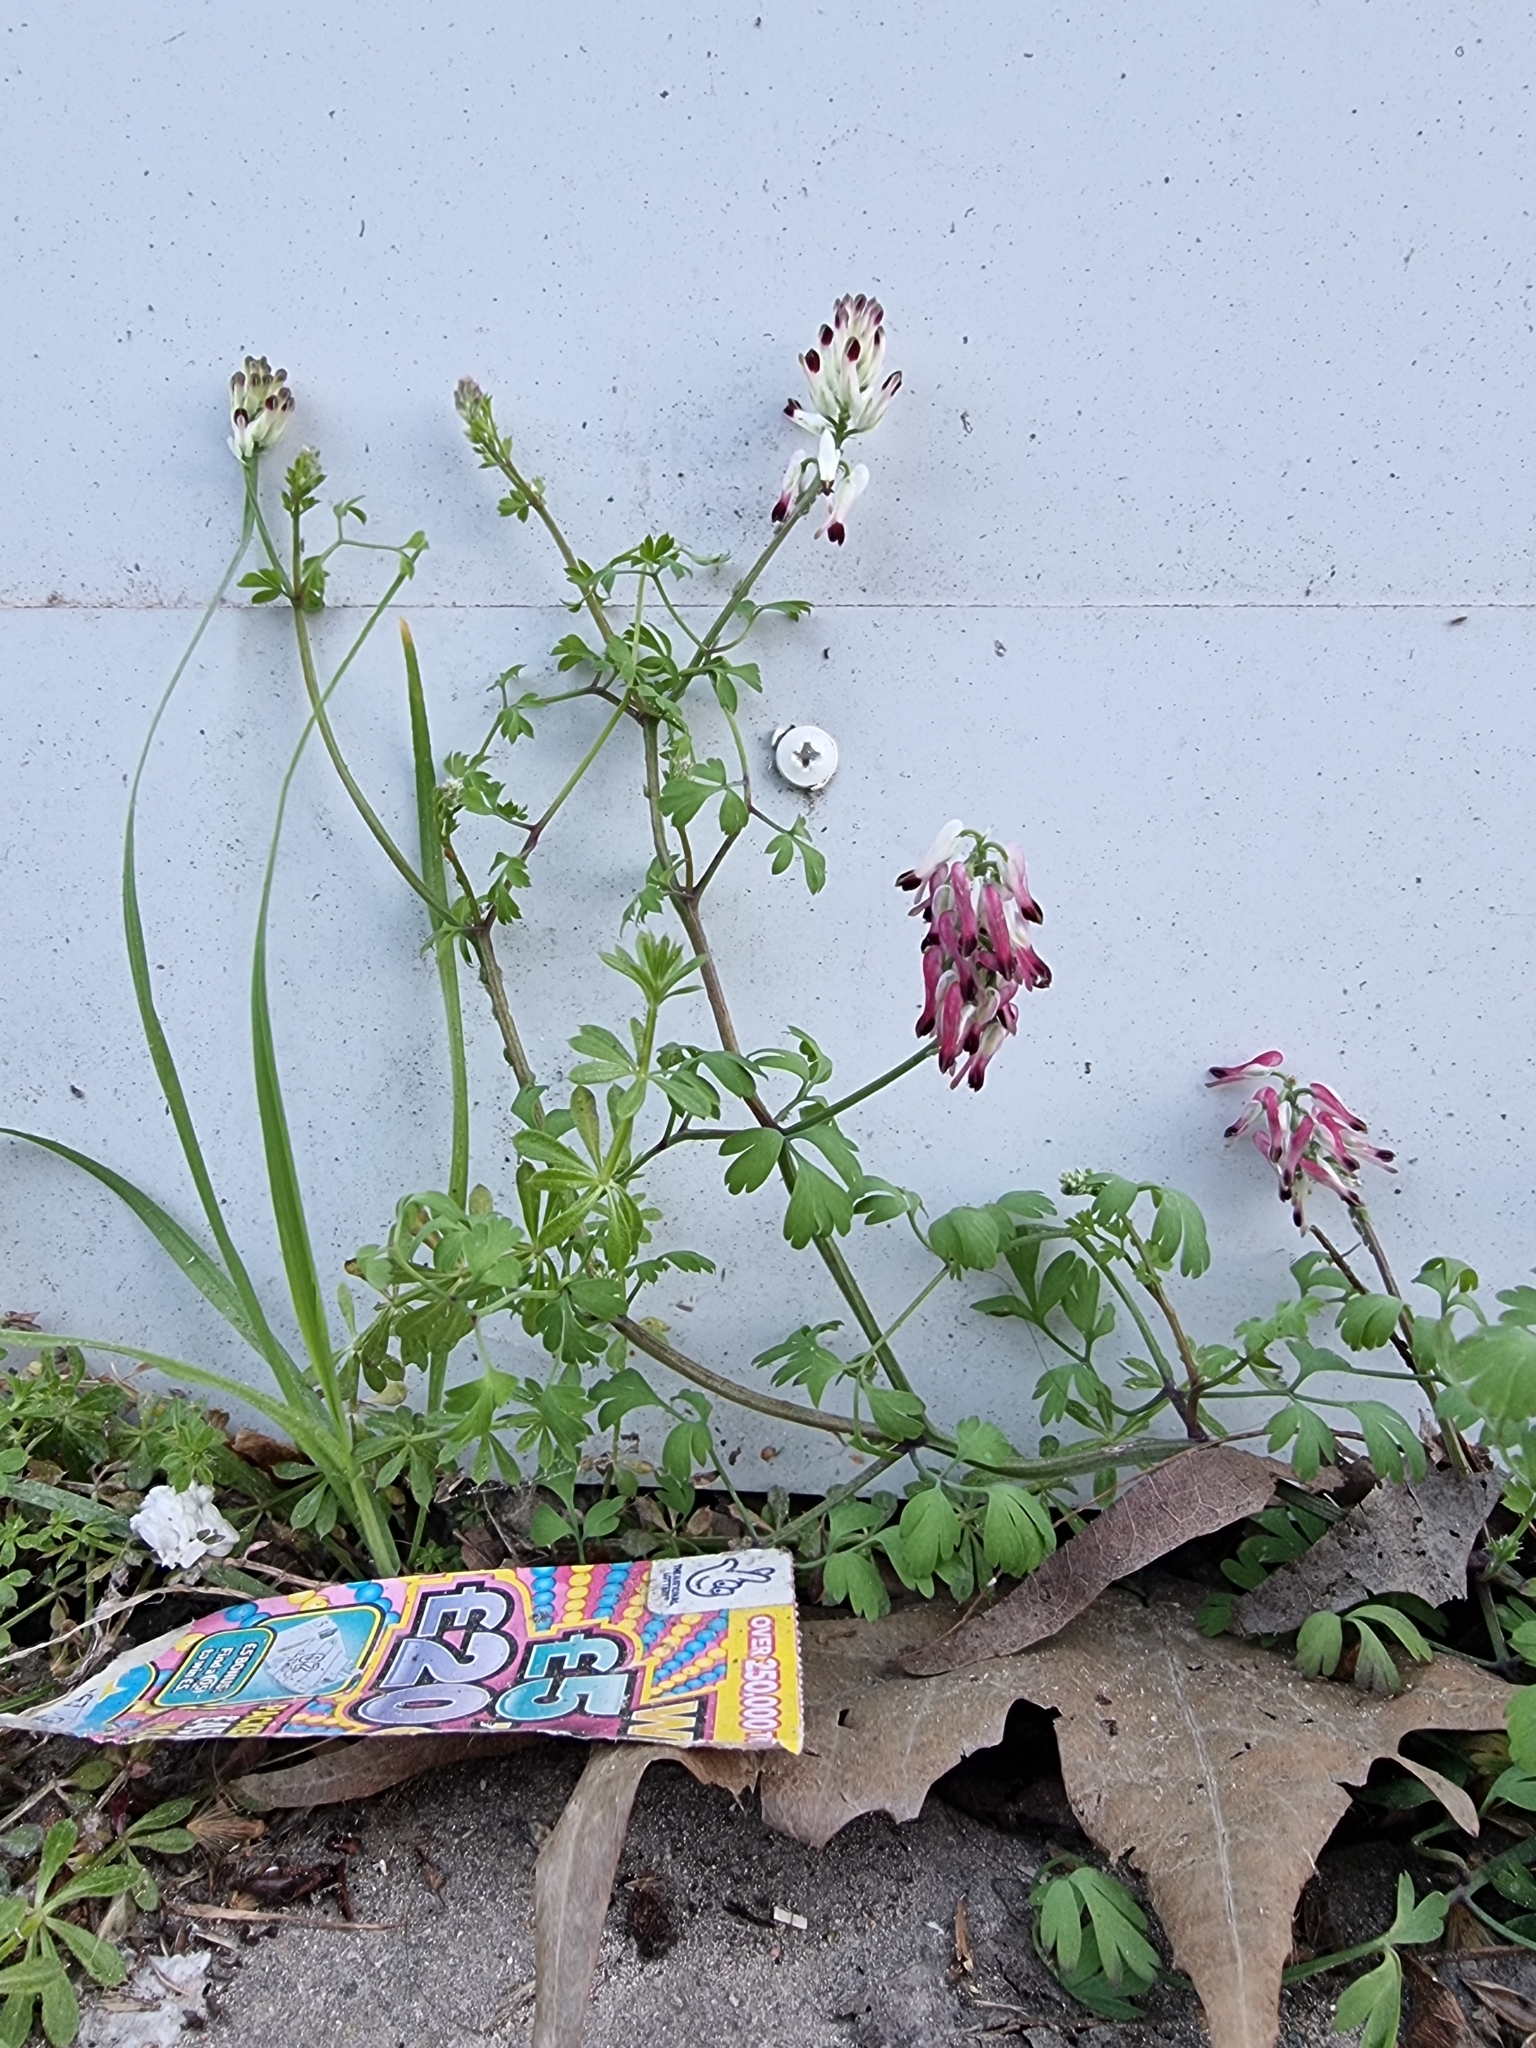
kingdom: Plantae
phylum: Tracheophyta
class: Magnoliopsida
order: Ranunculales
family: Papaveraceae
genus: Fumaria
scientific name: Fumaria capreolata
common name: White ramping-fumitory
